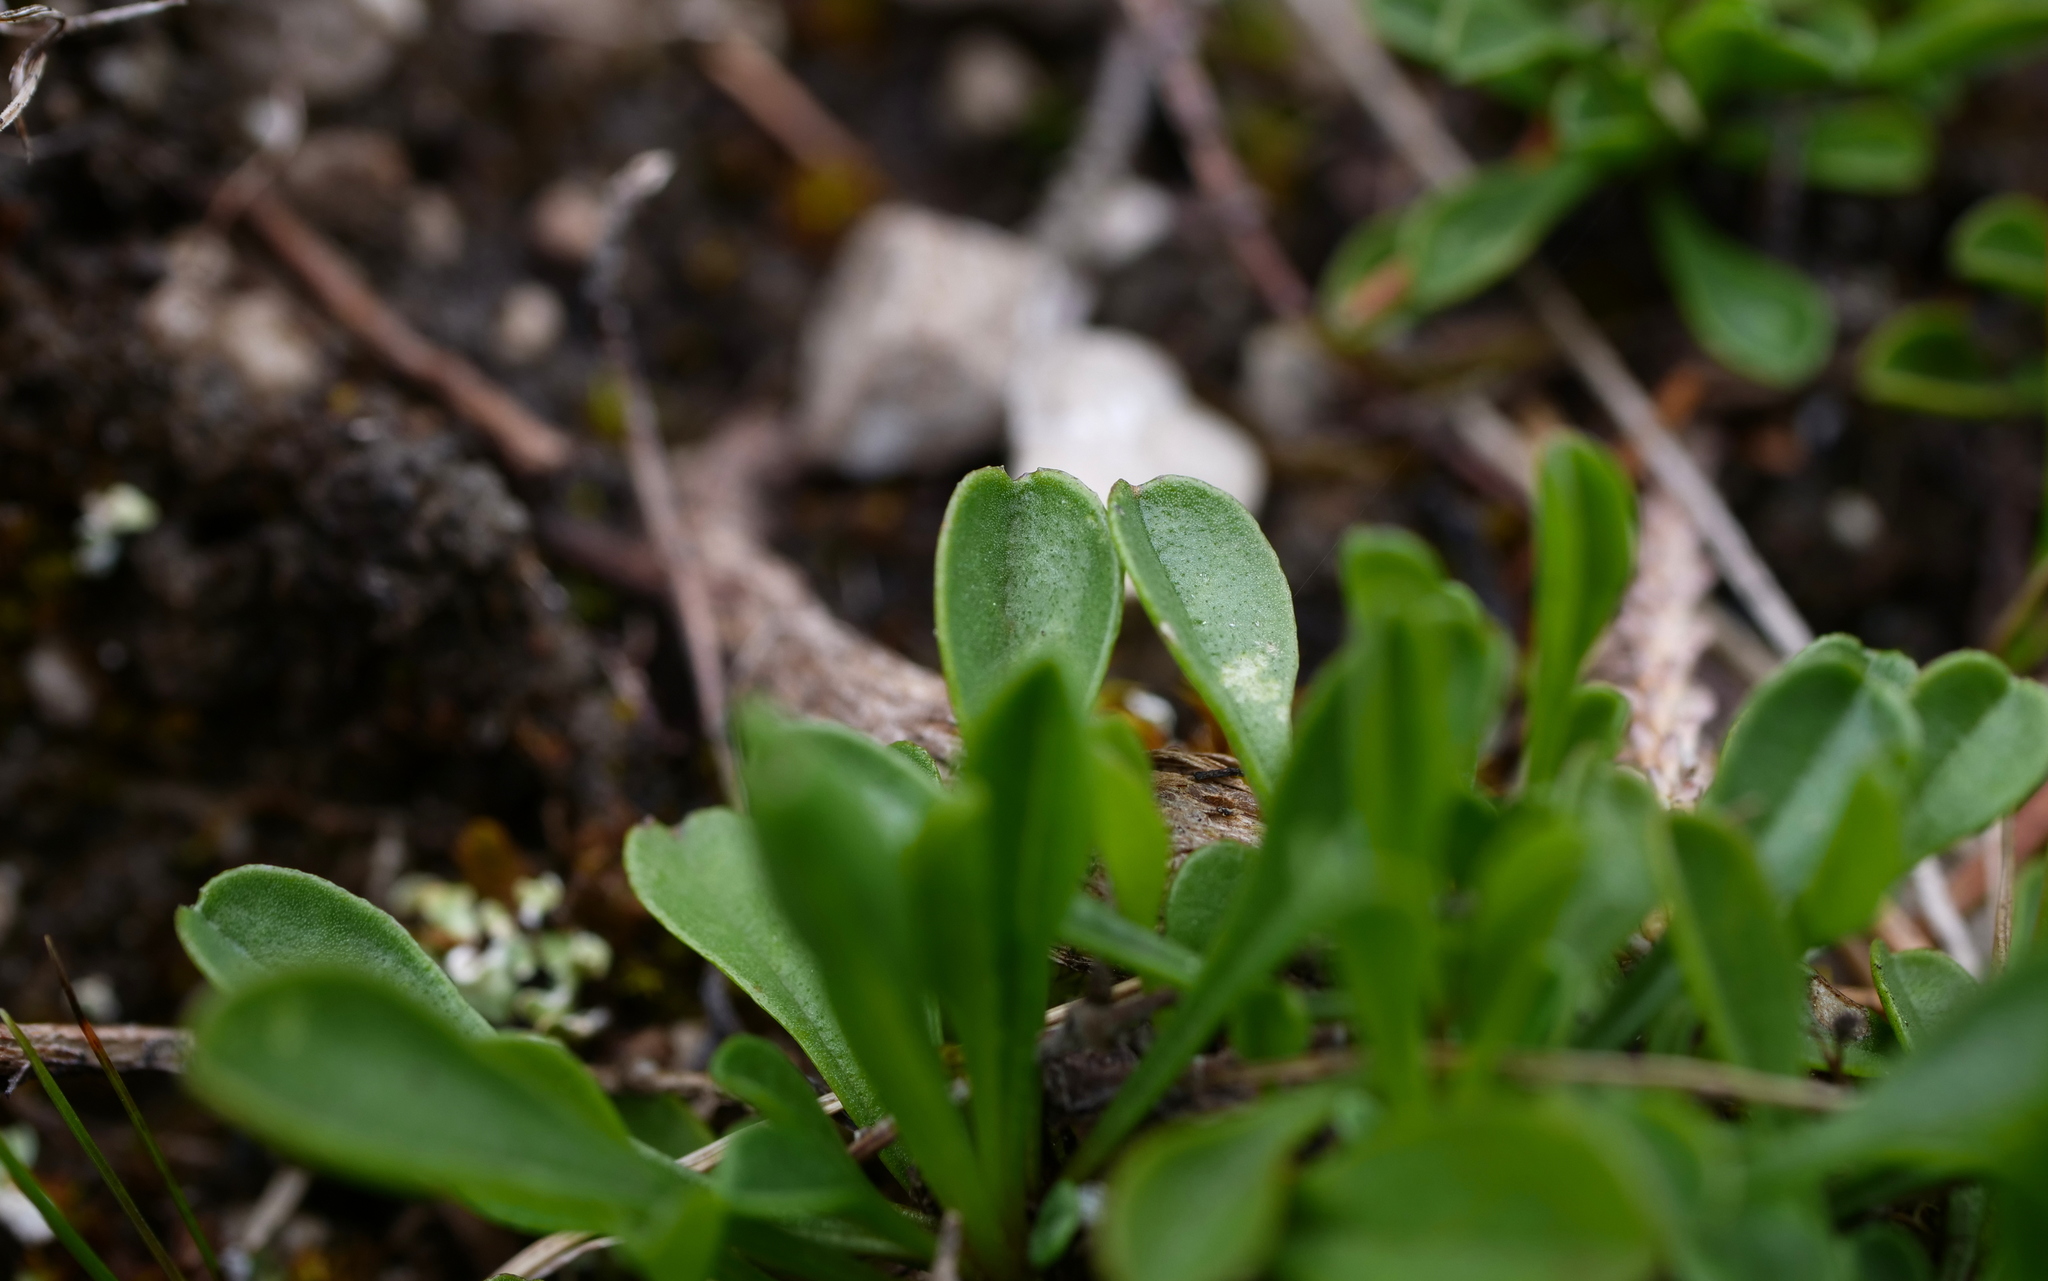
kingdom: Plantae
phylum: Tracheophyta
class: Magnoliopsida
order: Lamiales
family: Plantaginaceae
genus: Globularia
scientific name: Globularia cordifolia
